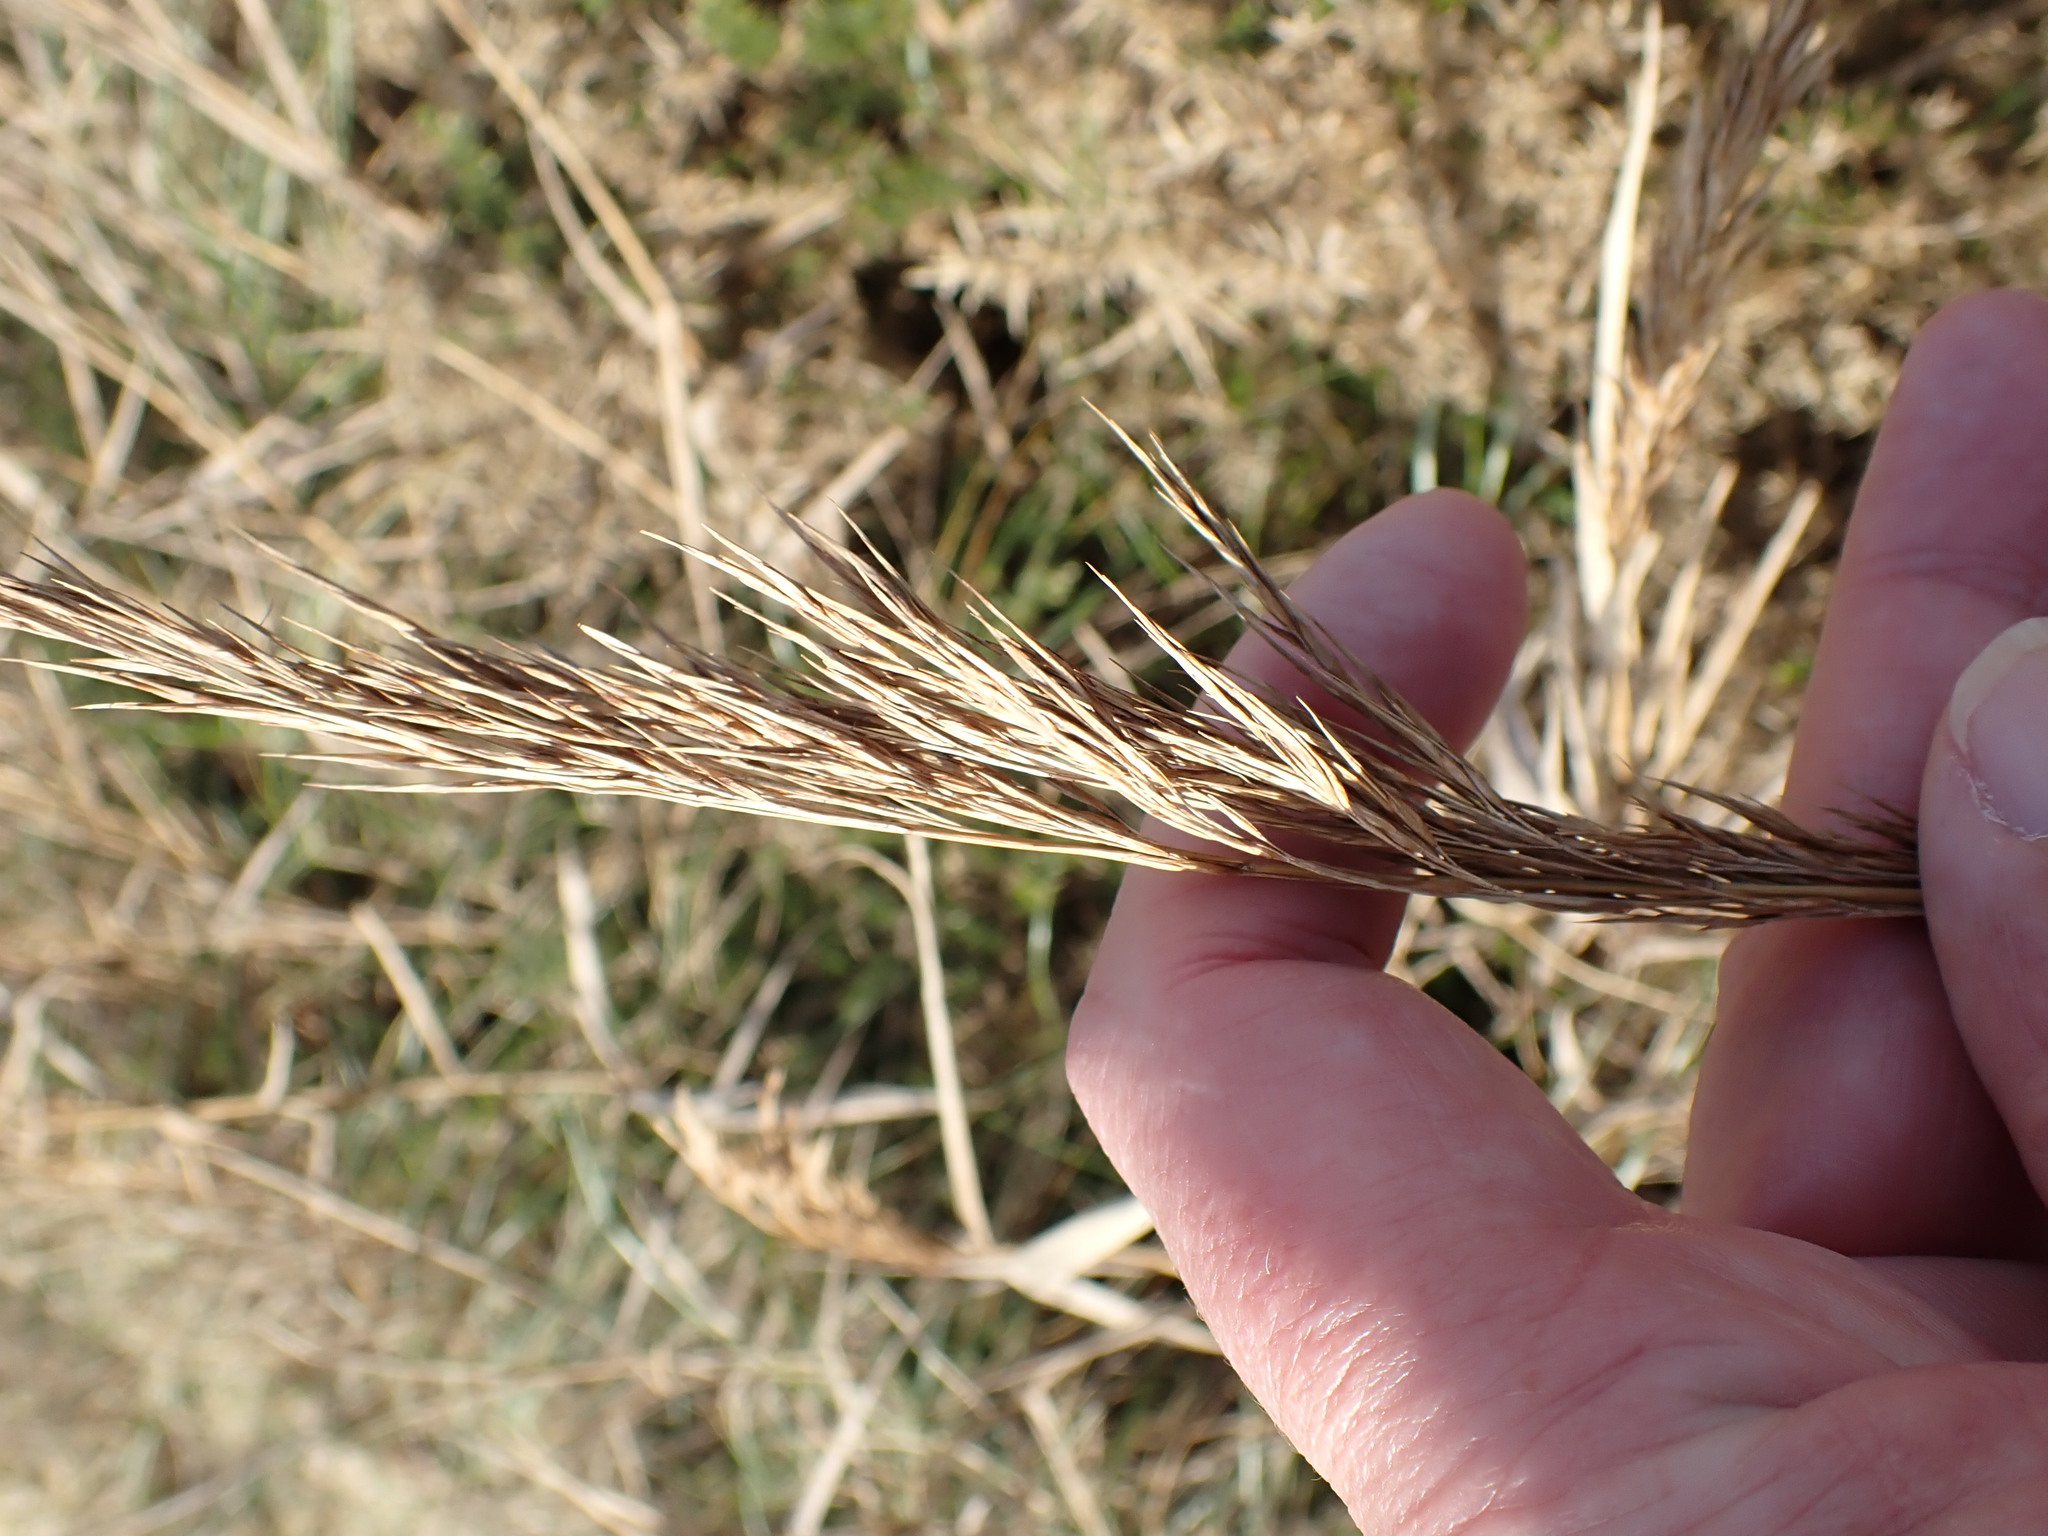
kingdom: Plantae
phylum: Tracheophyta
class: Liliopsida
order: Poales
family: Poaceae
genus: Phragmites
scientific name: Phragmites australis
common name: Common reed
